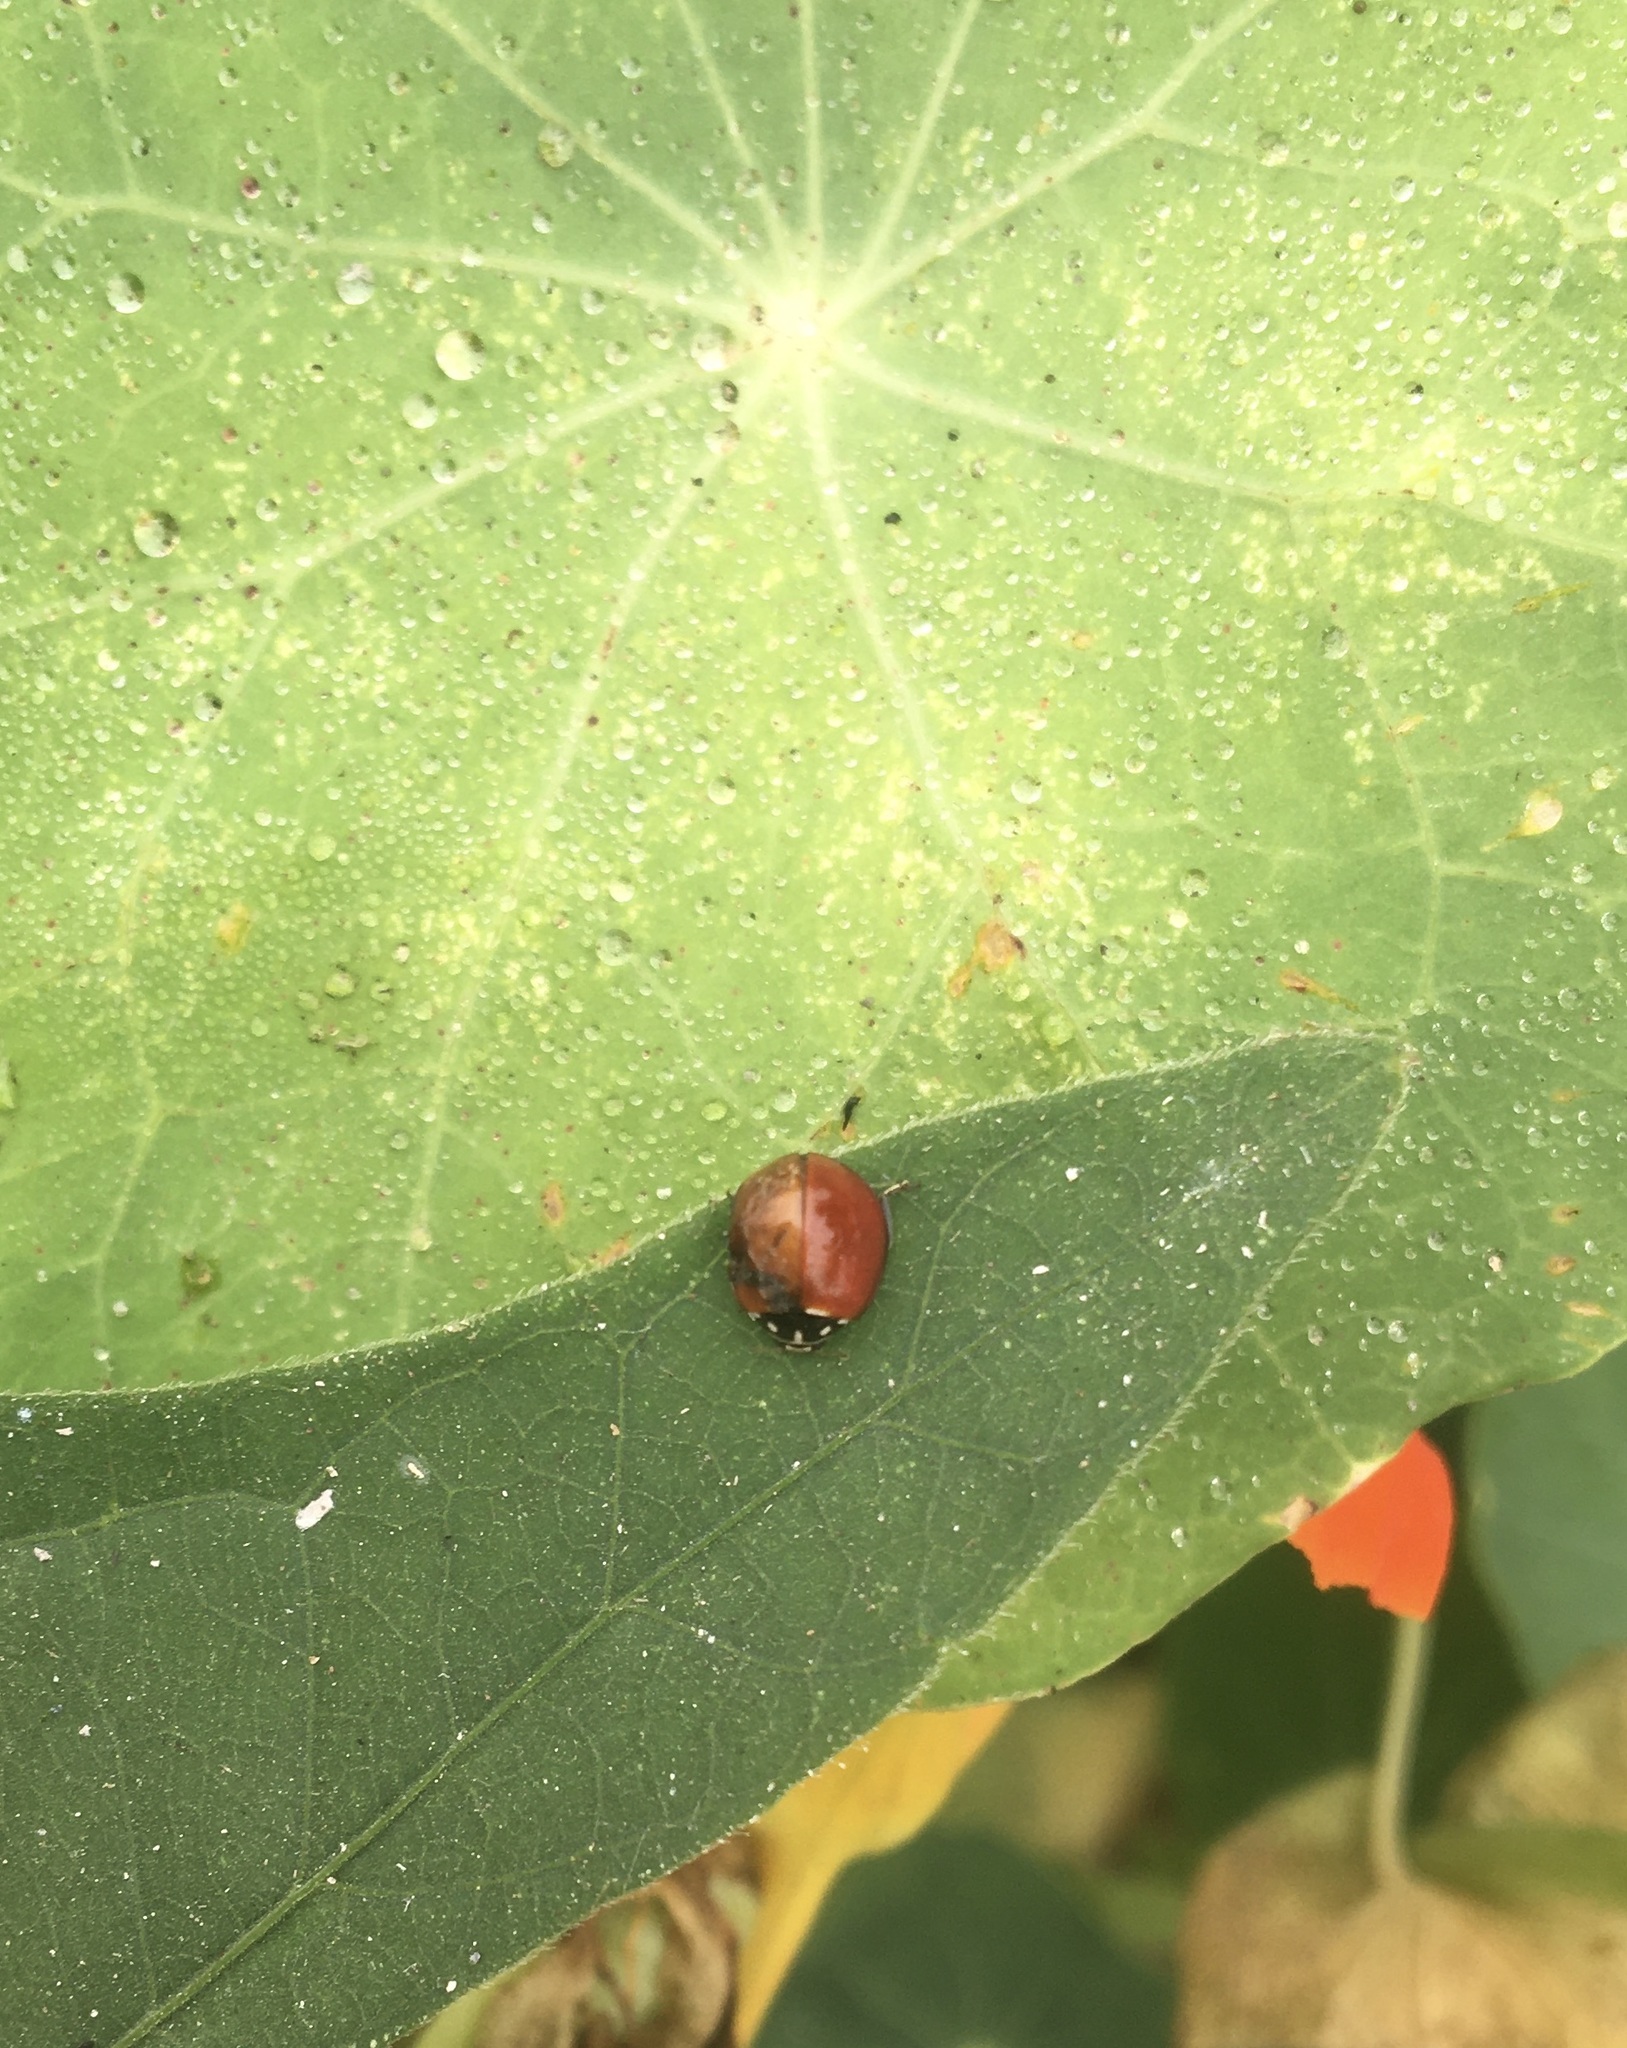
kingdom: Animalia
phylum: Arthropoda
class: Insecta
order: Coleoptera
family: Coccinellidae
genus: Cycloneda
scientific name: Cycloneda sanguinea
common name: Ladybird beetle
